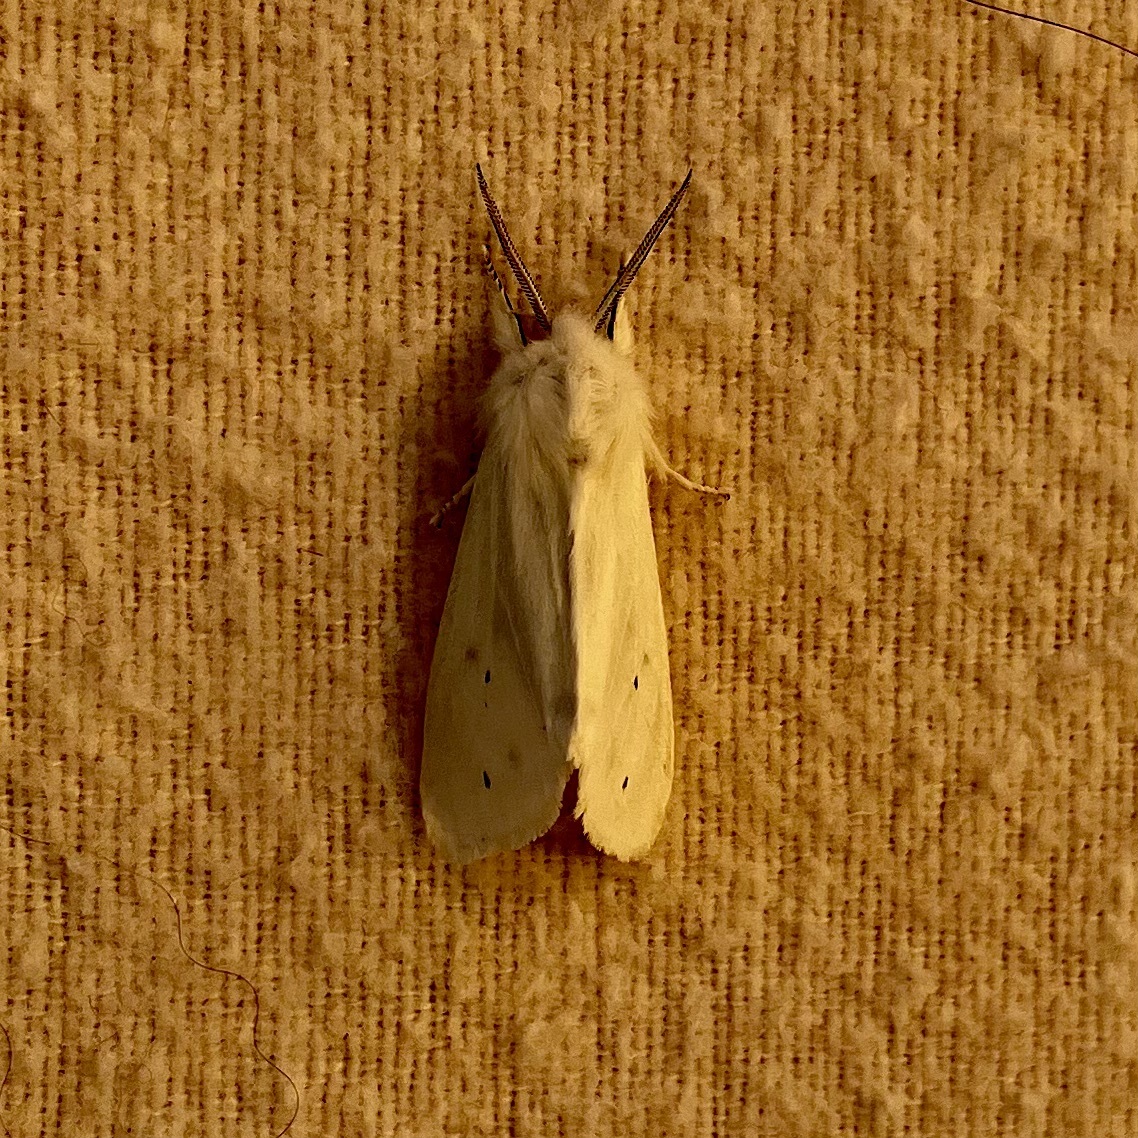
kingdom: Animalia
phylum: Arthropoda
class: Insecta
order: Lepidoptera
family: Erebidae
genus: Spilosoma
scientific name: Spilosoma virginica
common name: Virginia tiger moth
